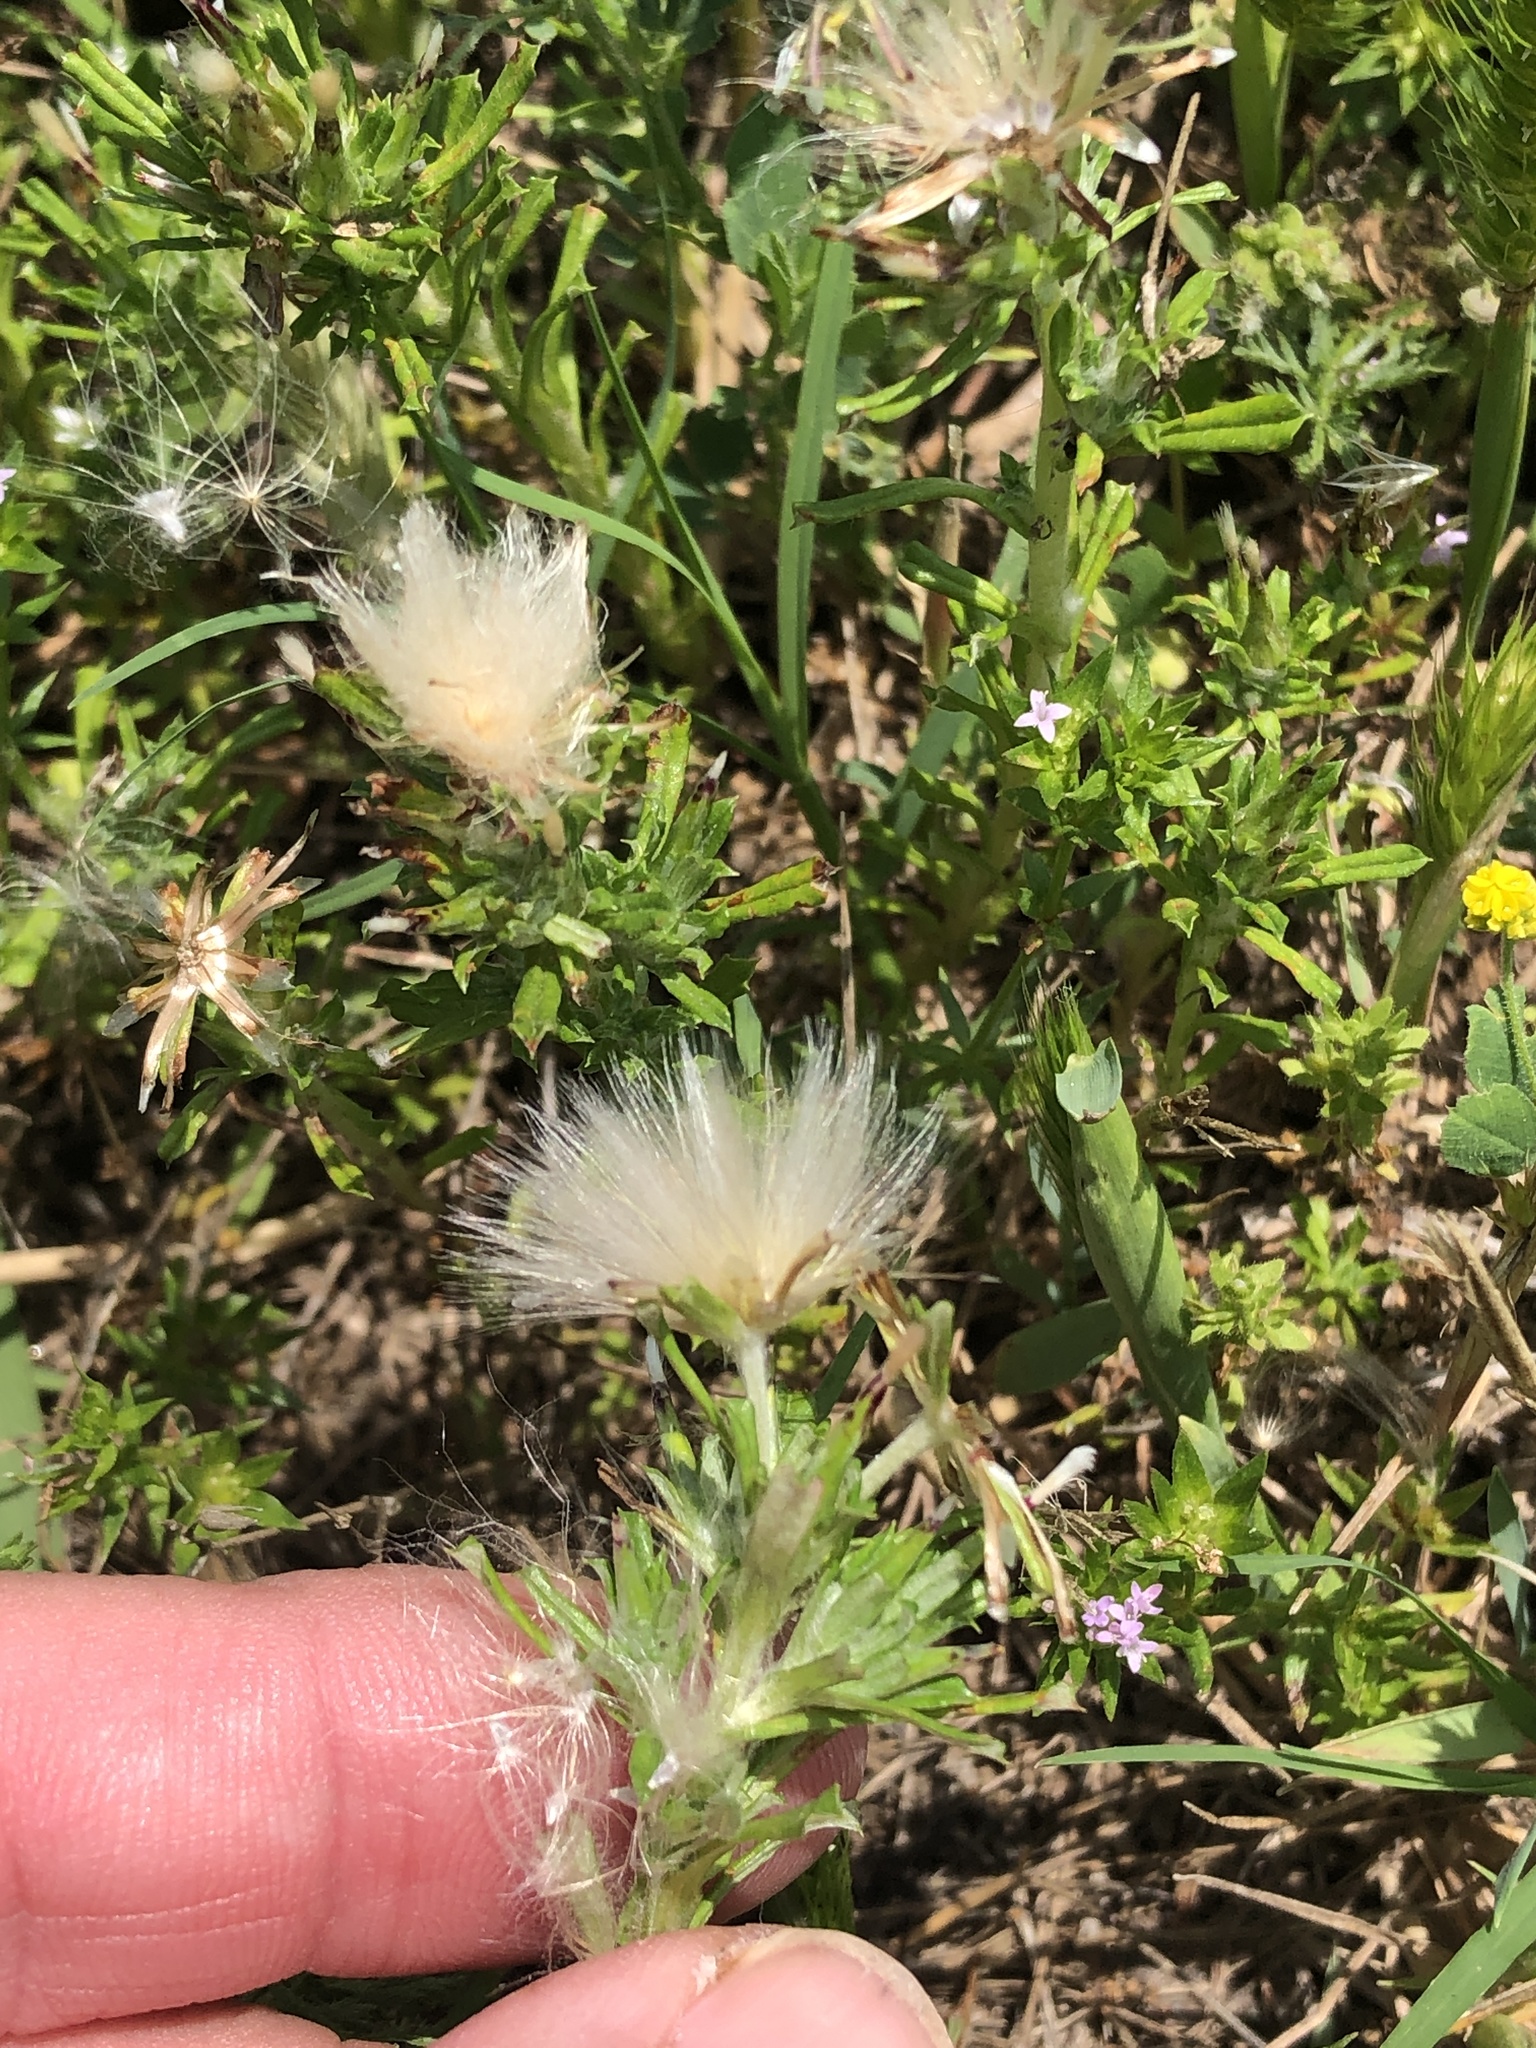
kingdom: Plantae
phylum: Tracheophyta
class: Magnoliopsida
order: Asterales
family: Asteraceae
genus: Facelis
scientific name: Facelis retusa
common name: Annual trampweed
